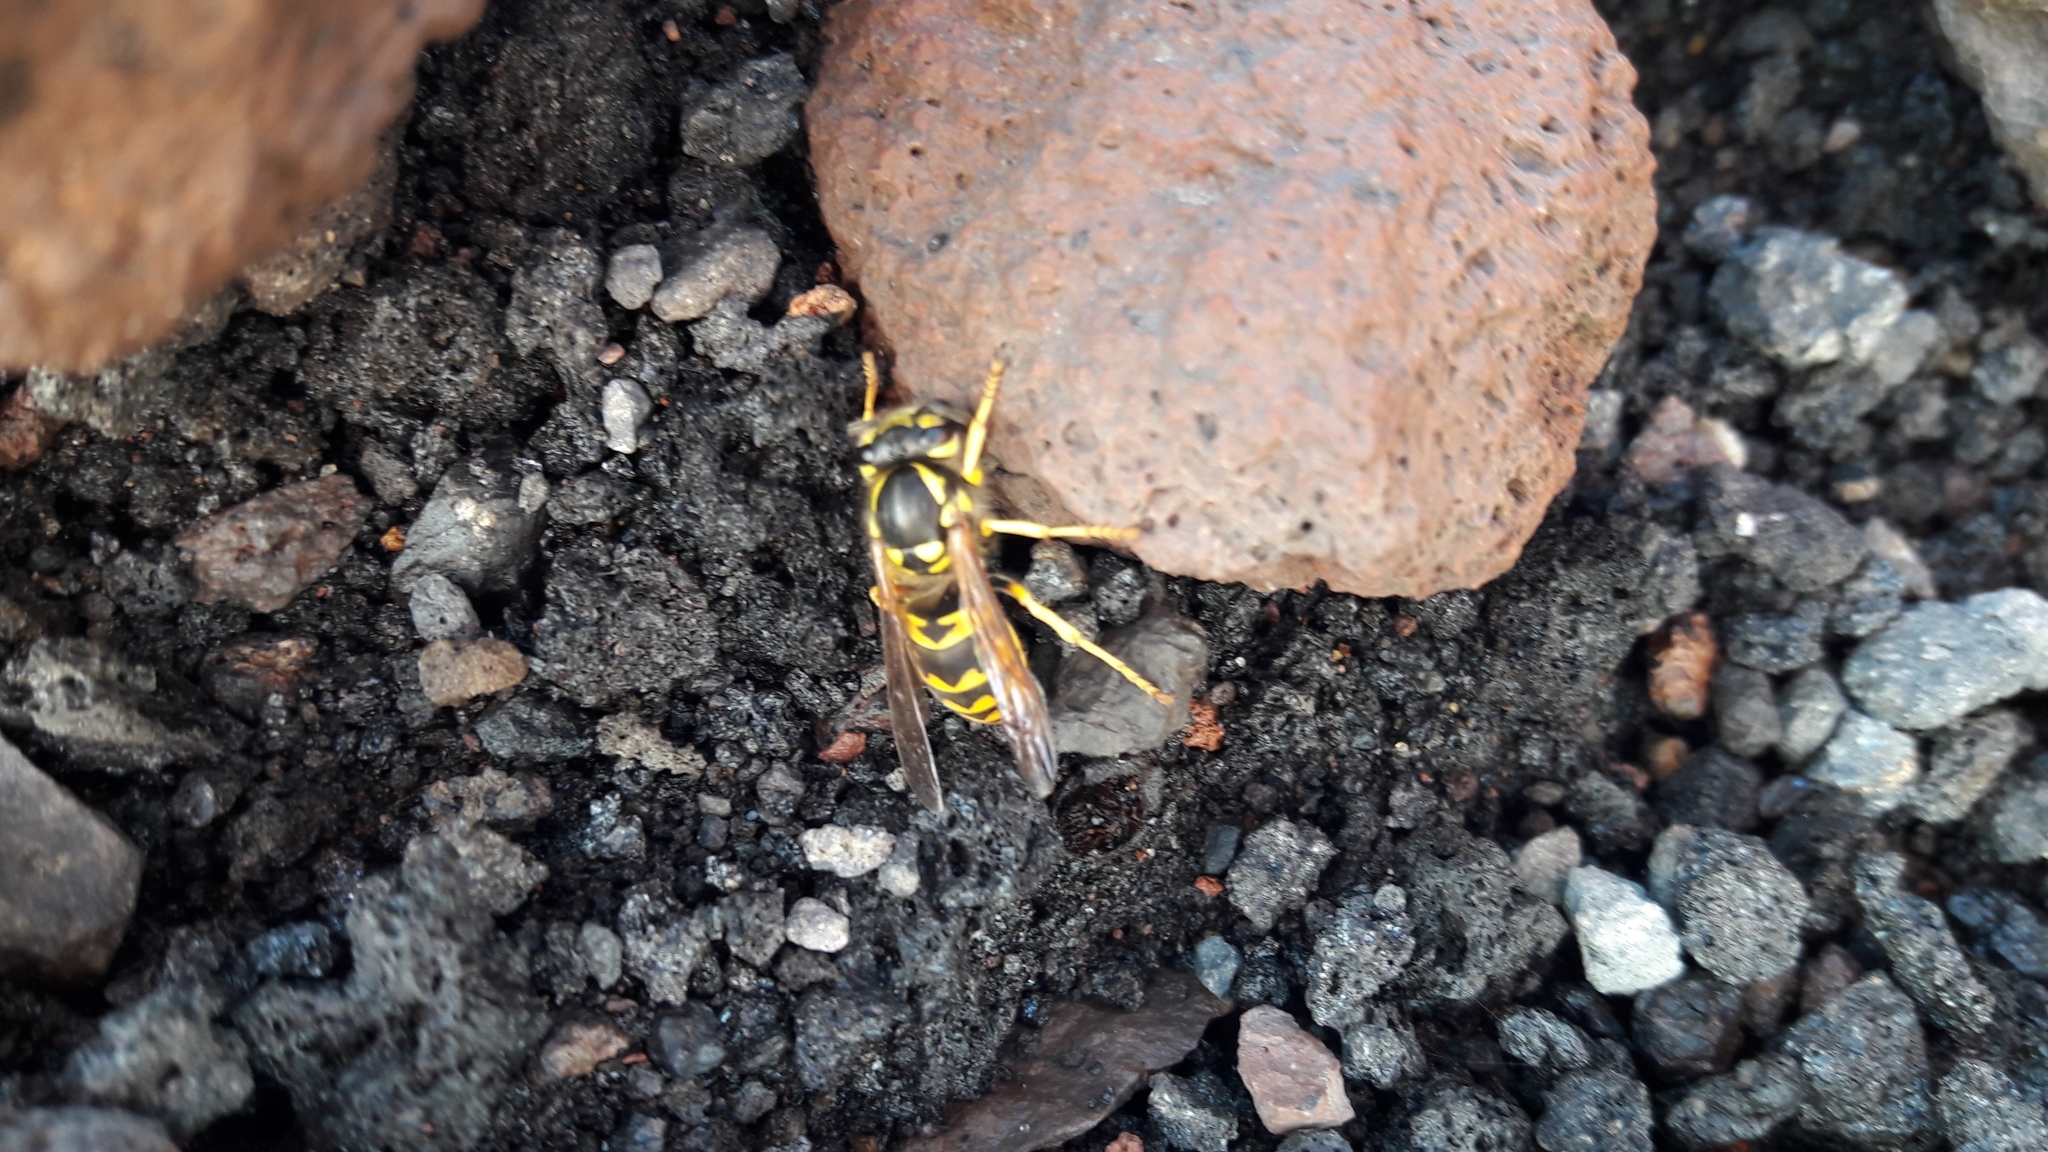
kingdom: Animalia
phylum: Arthropoda
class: Insecta
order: Hymenoptera
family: Vespidae
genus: Vespula
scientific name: Vespula germanica
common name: German wasp
